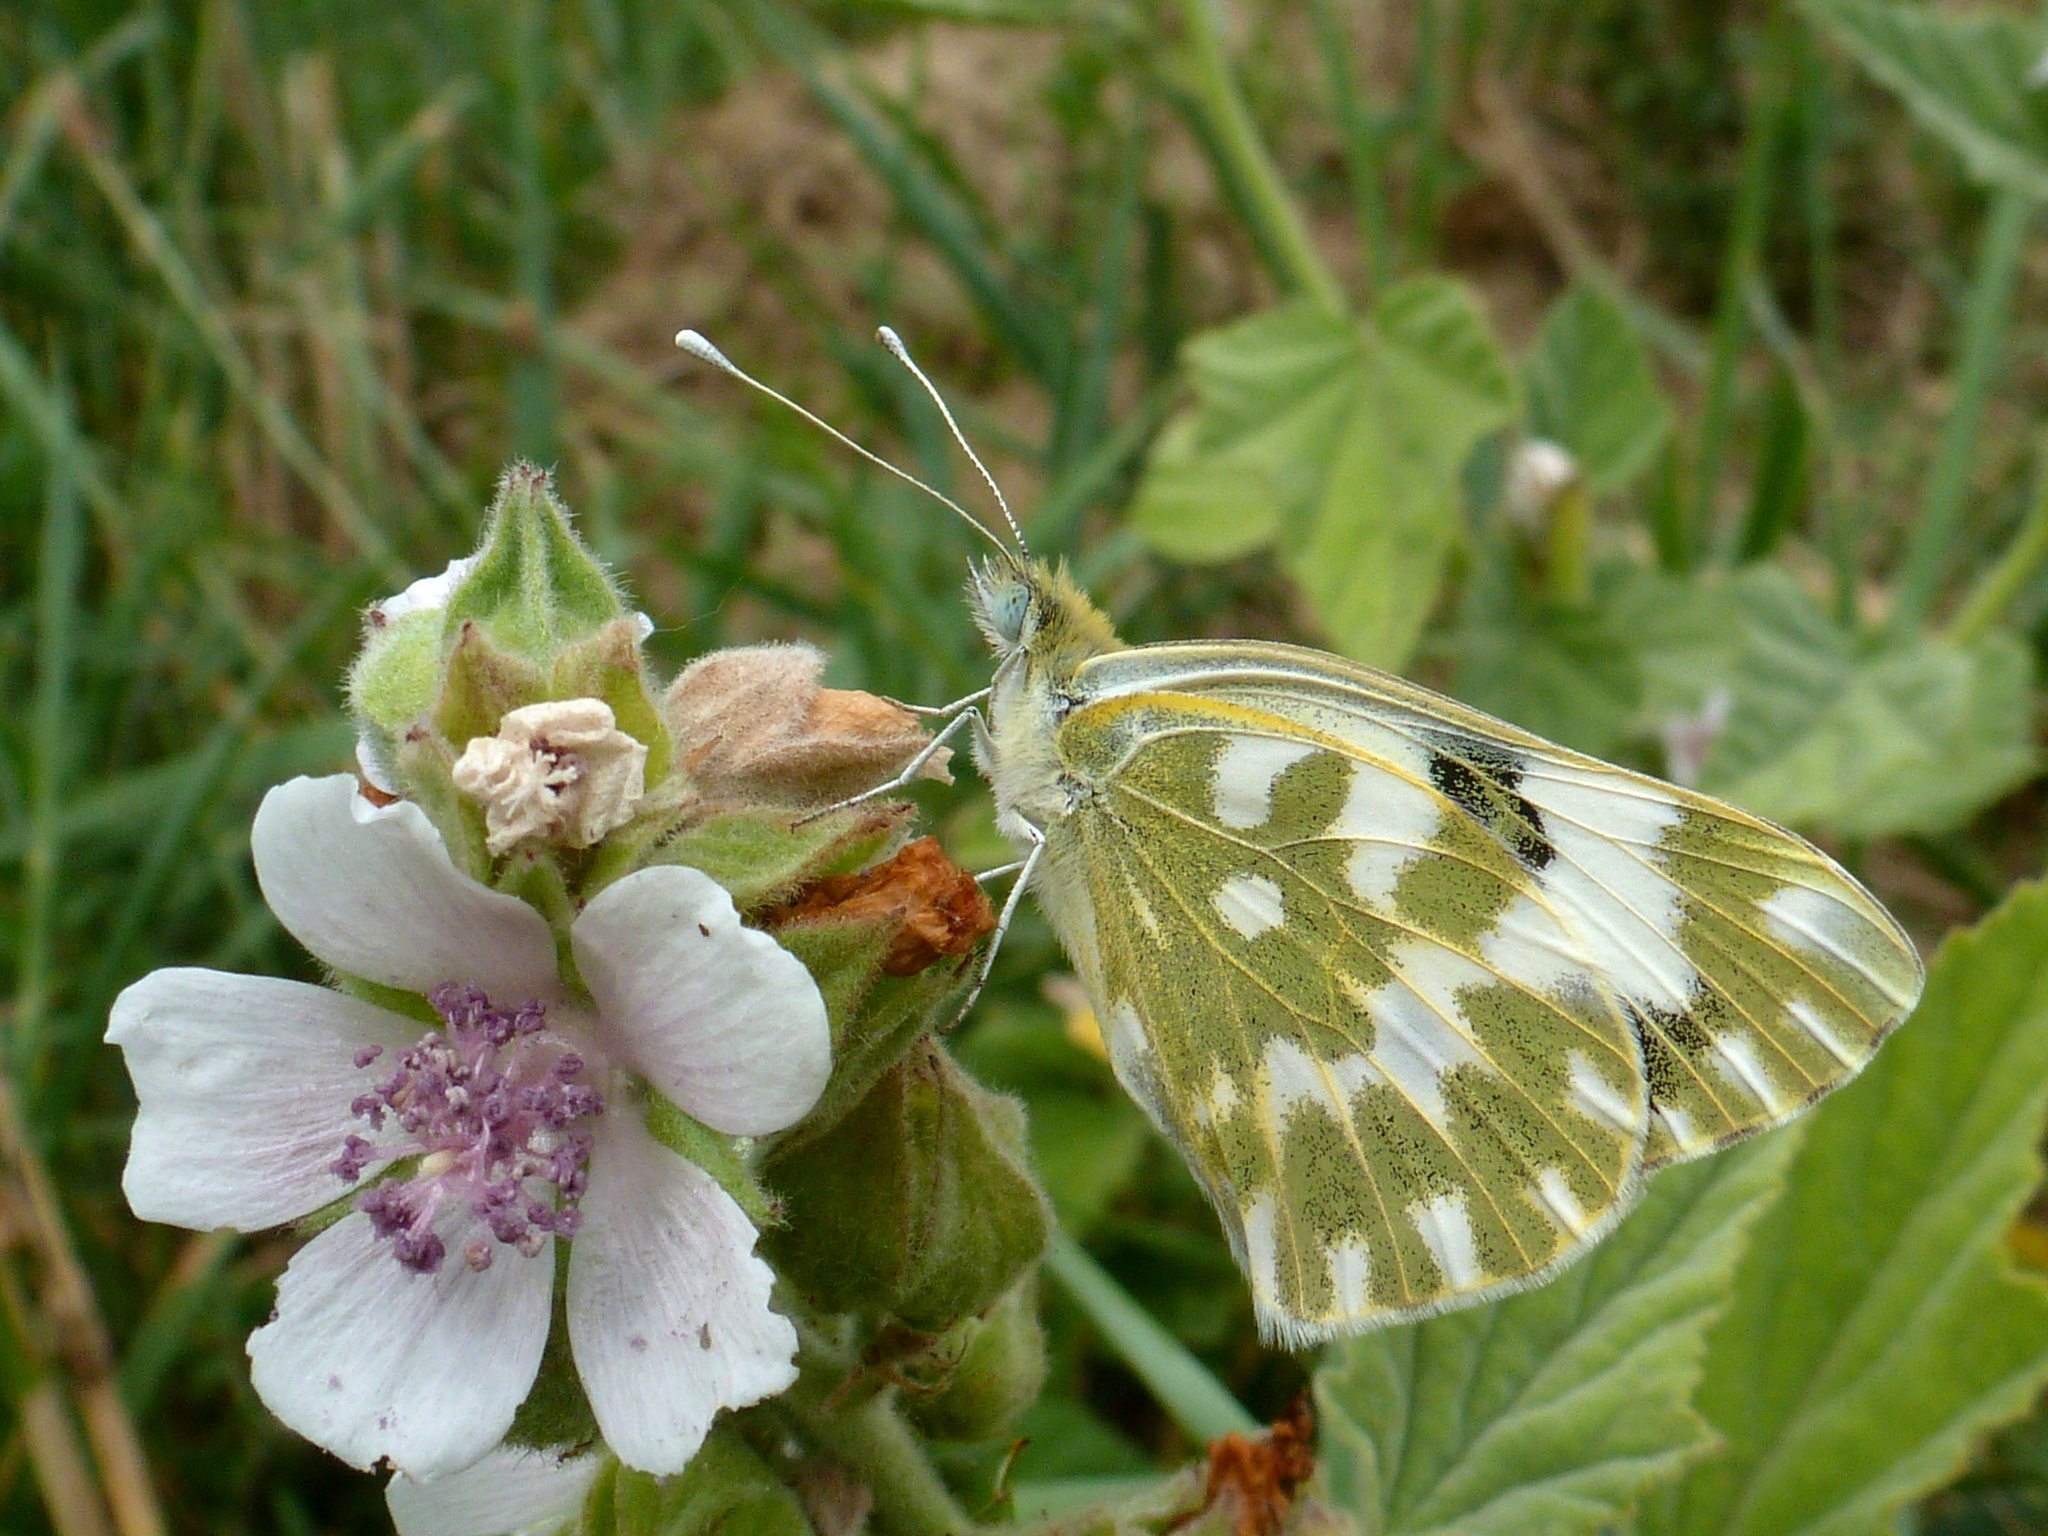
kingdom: Animalia
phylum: Arthropoda
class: Insecta
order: Lepidoptera
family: Pieridae
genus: Pontia
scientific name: Pontia edusa
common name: Eastern bath white
